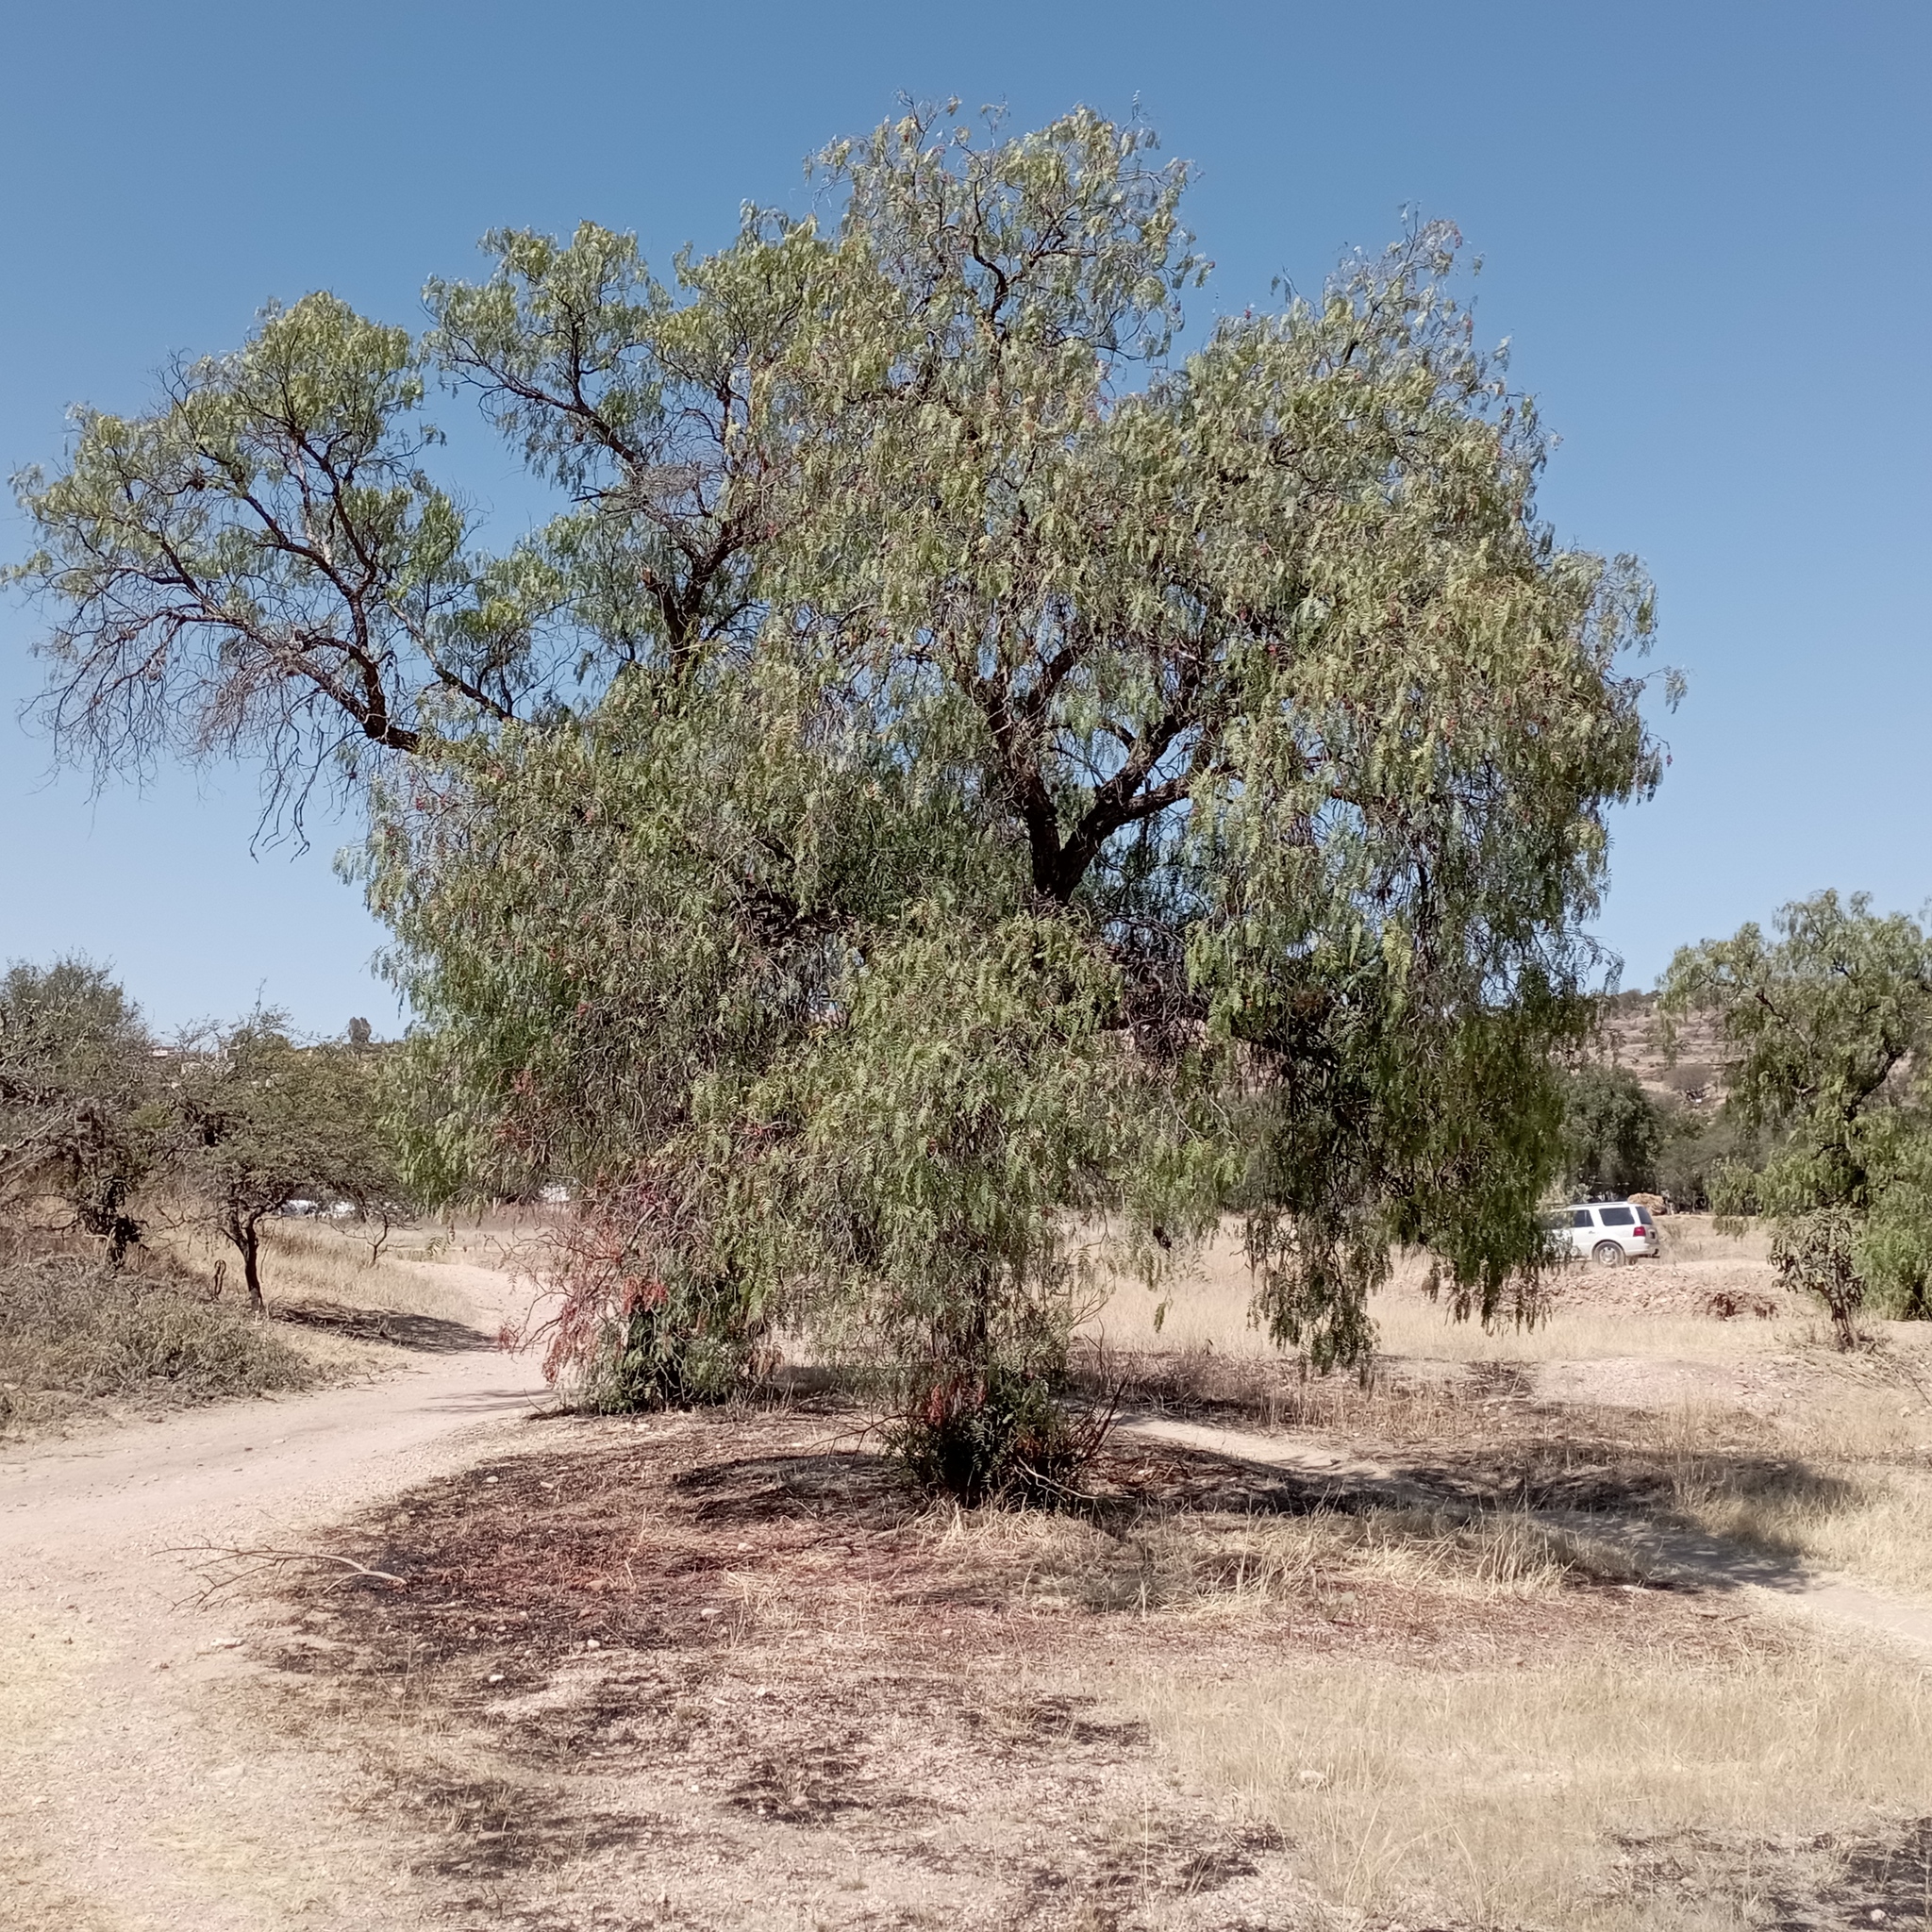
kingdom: Plantae
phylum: Tracheophyta
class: Magnoliopsida
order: Sapindales
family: Anacardiaceae
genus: Schinus
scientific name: Schinus molle
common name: Peruvian peppertree
